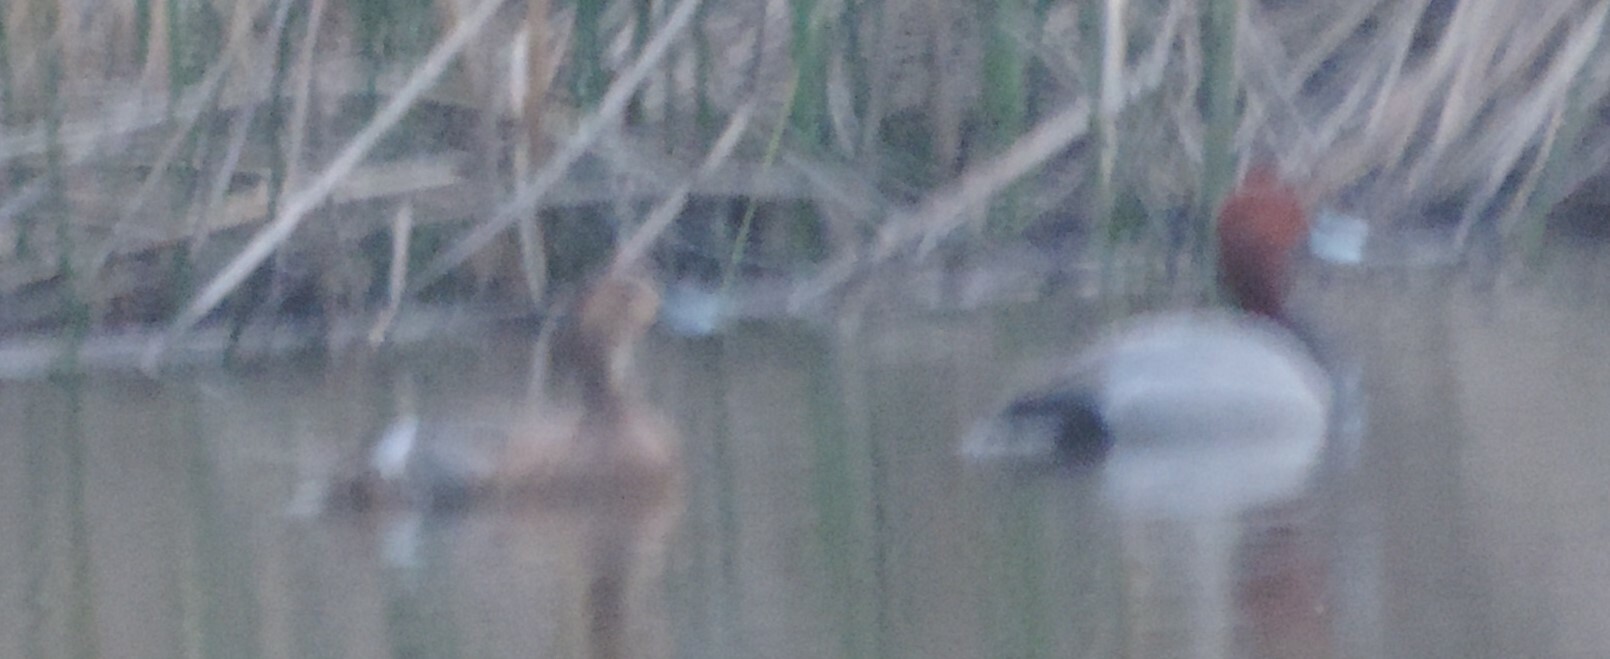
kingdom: Animalia
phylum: Chordata
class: Aves
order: Anseriformes
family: Anatidae
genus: Aythya
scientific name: Aythya americana
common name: Redhead
